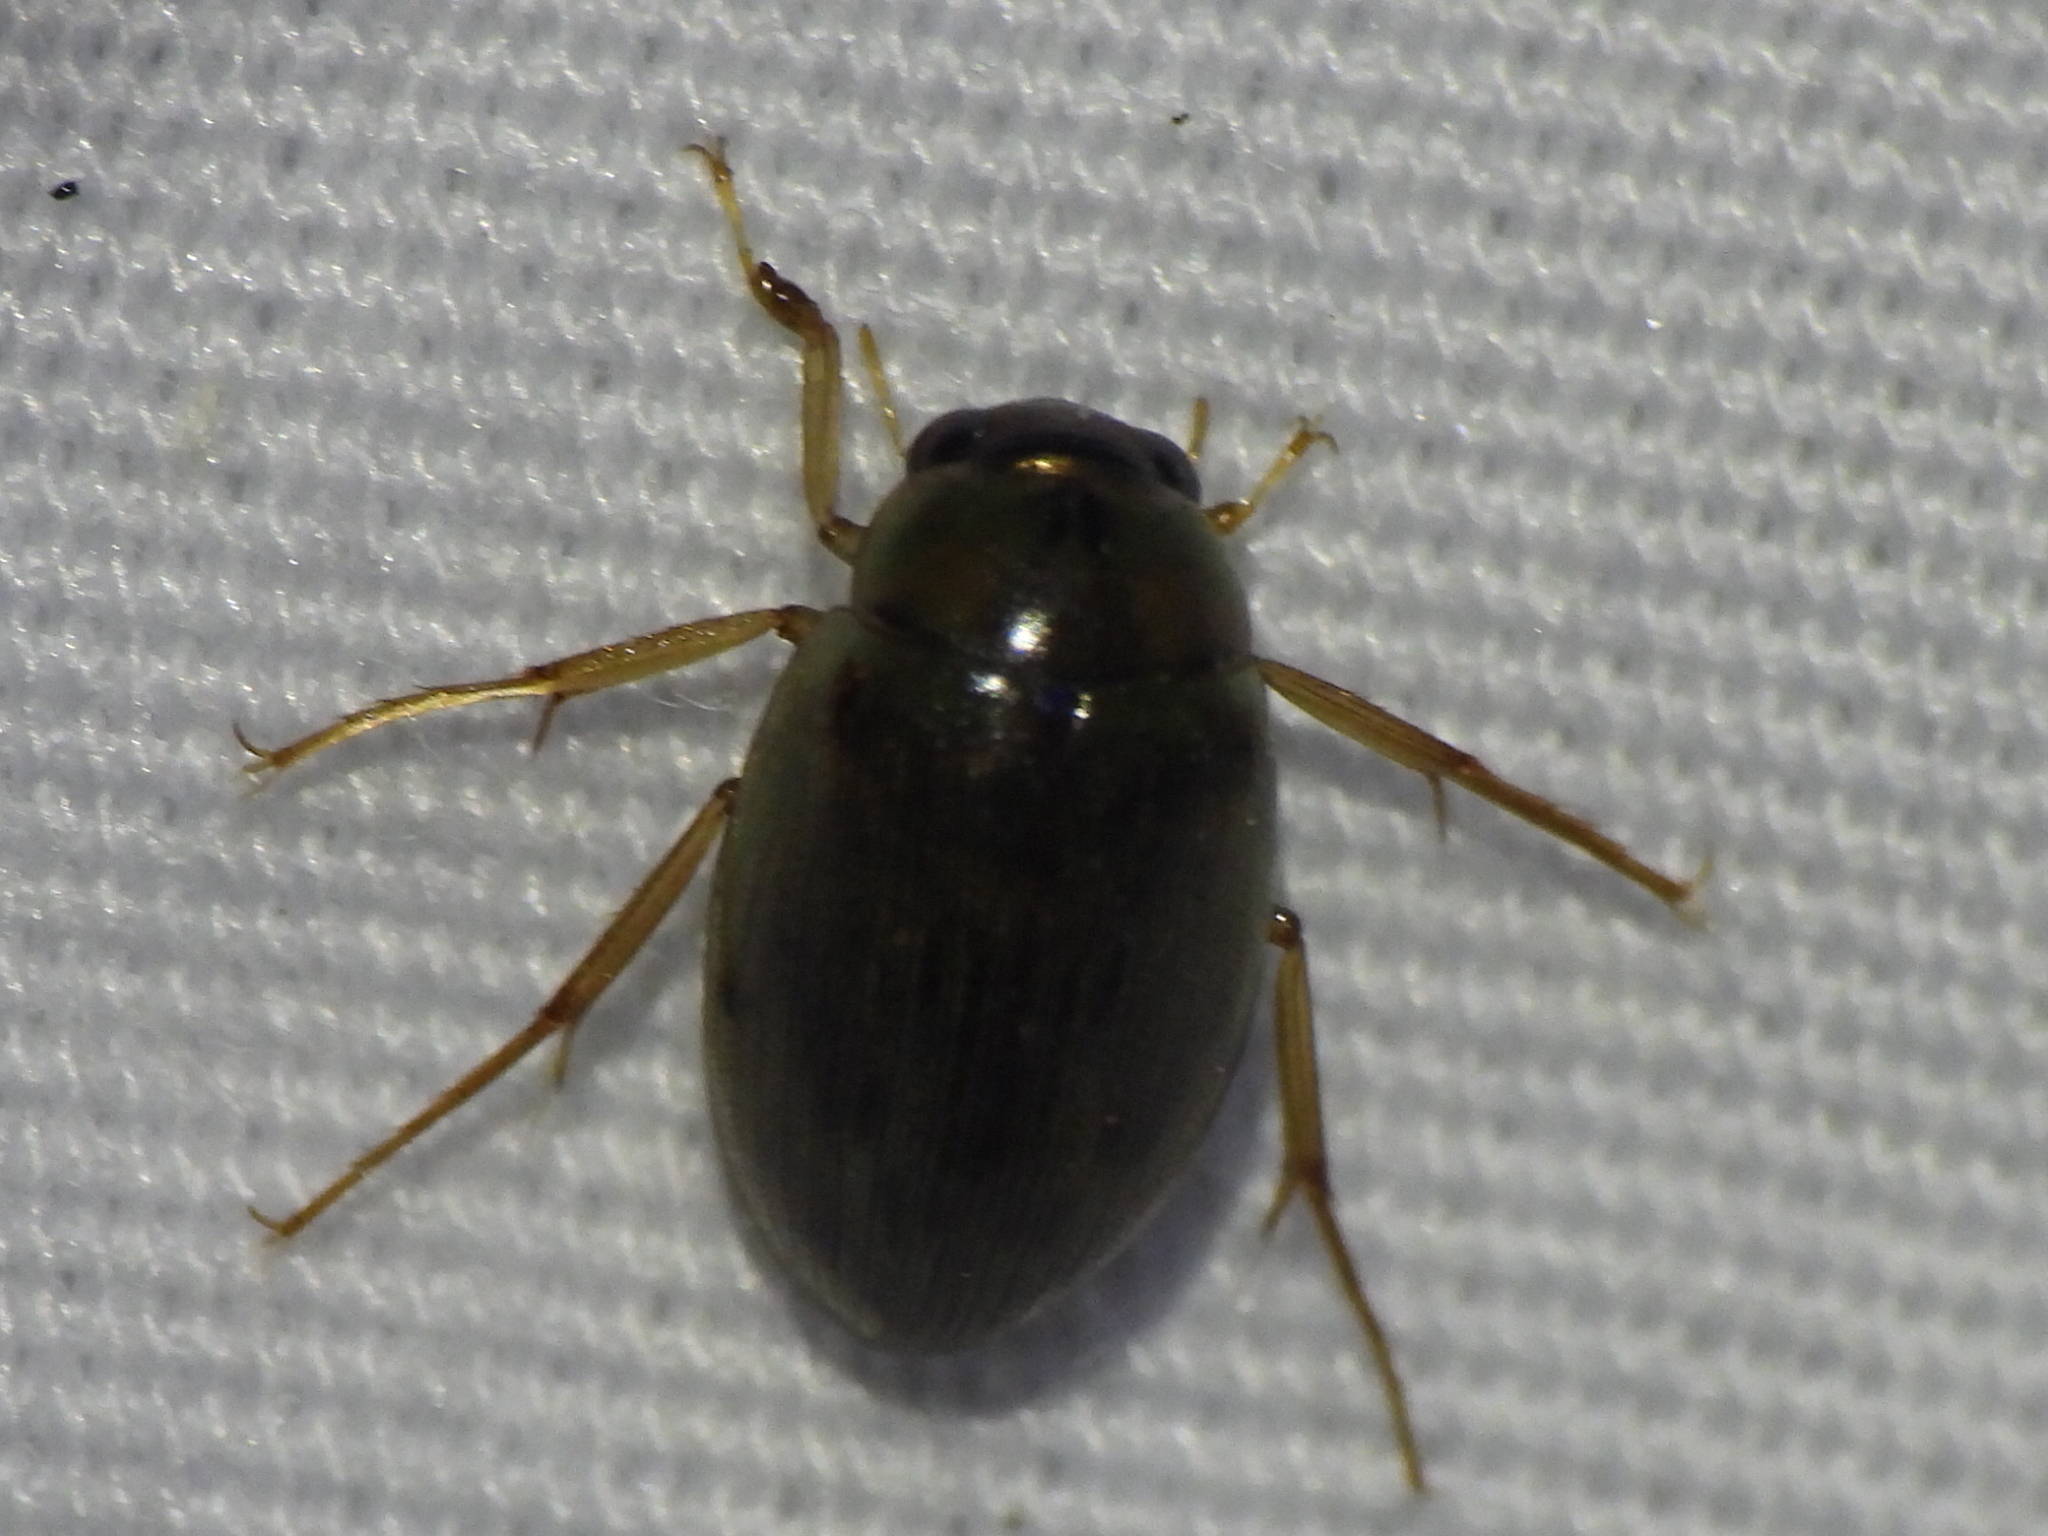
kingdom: Animalia
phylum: Arthropoda
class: Insecta
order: Coleoptera
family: Hydrophilidae
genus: Berosus
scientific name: Berosus
